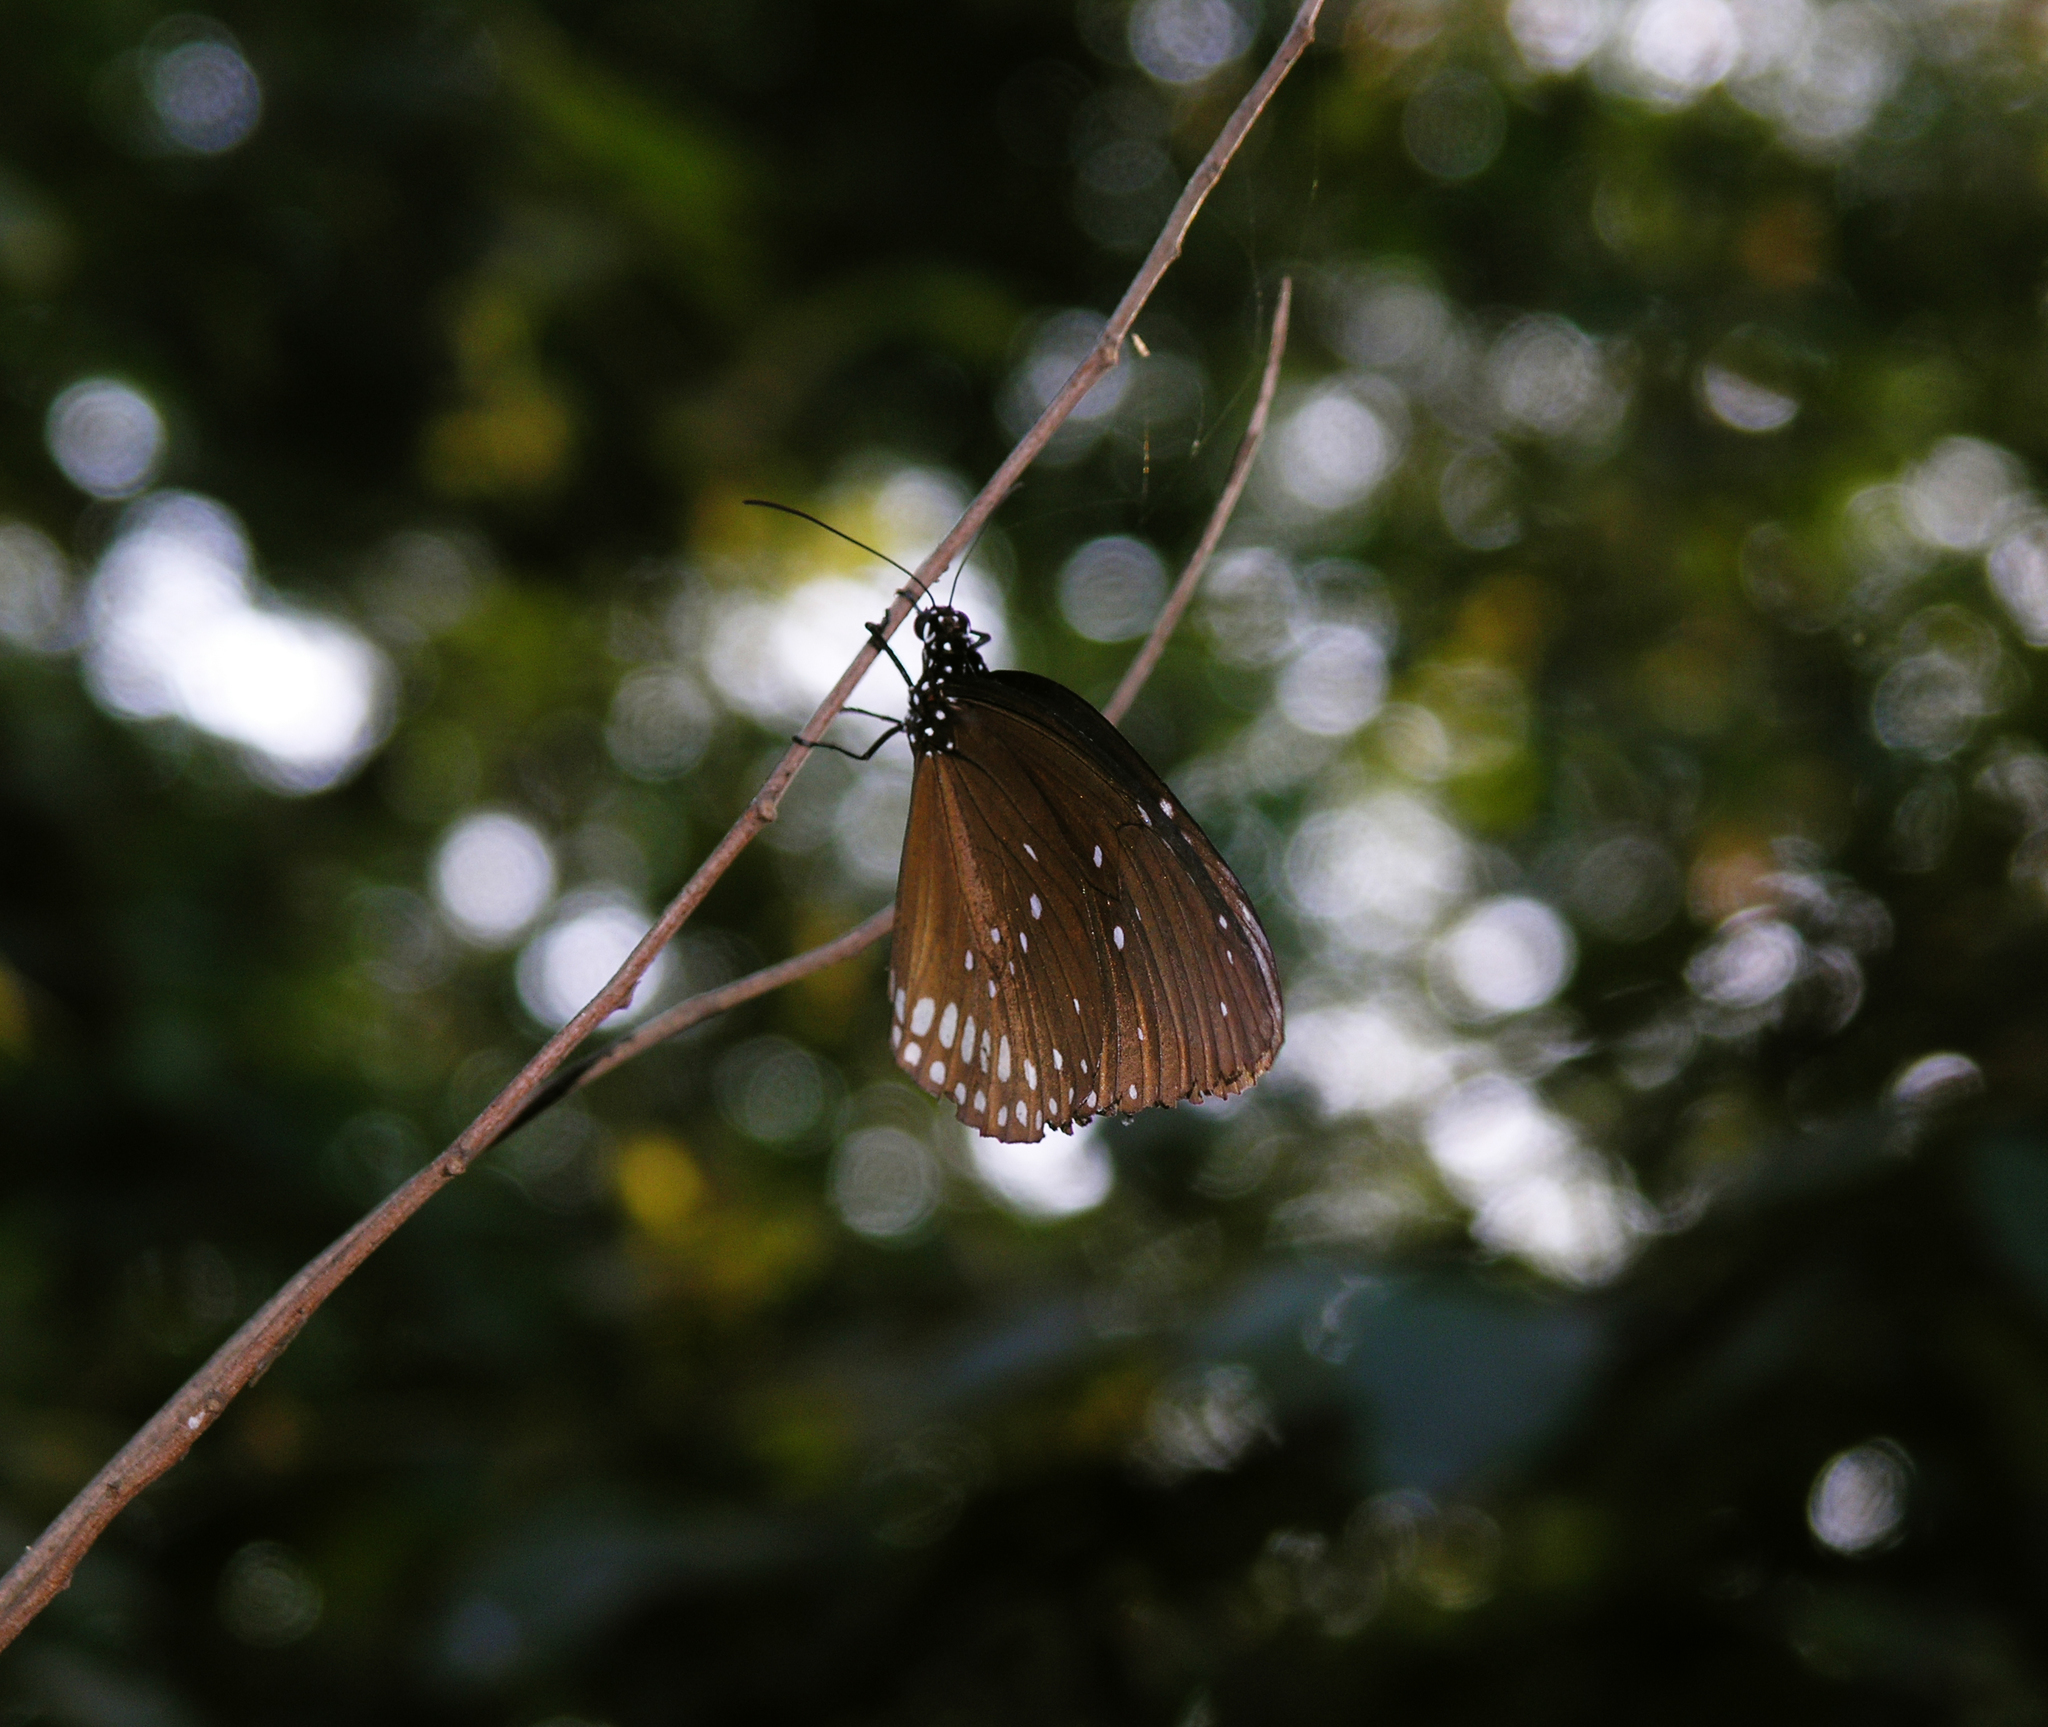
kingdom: Animalia
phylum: Arthropoda
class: Insecta
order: Lepidoptera
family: Nymphalidae
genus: Euploea
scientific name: Euploea core
